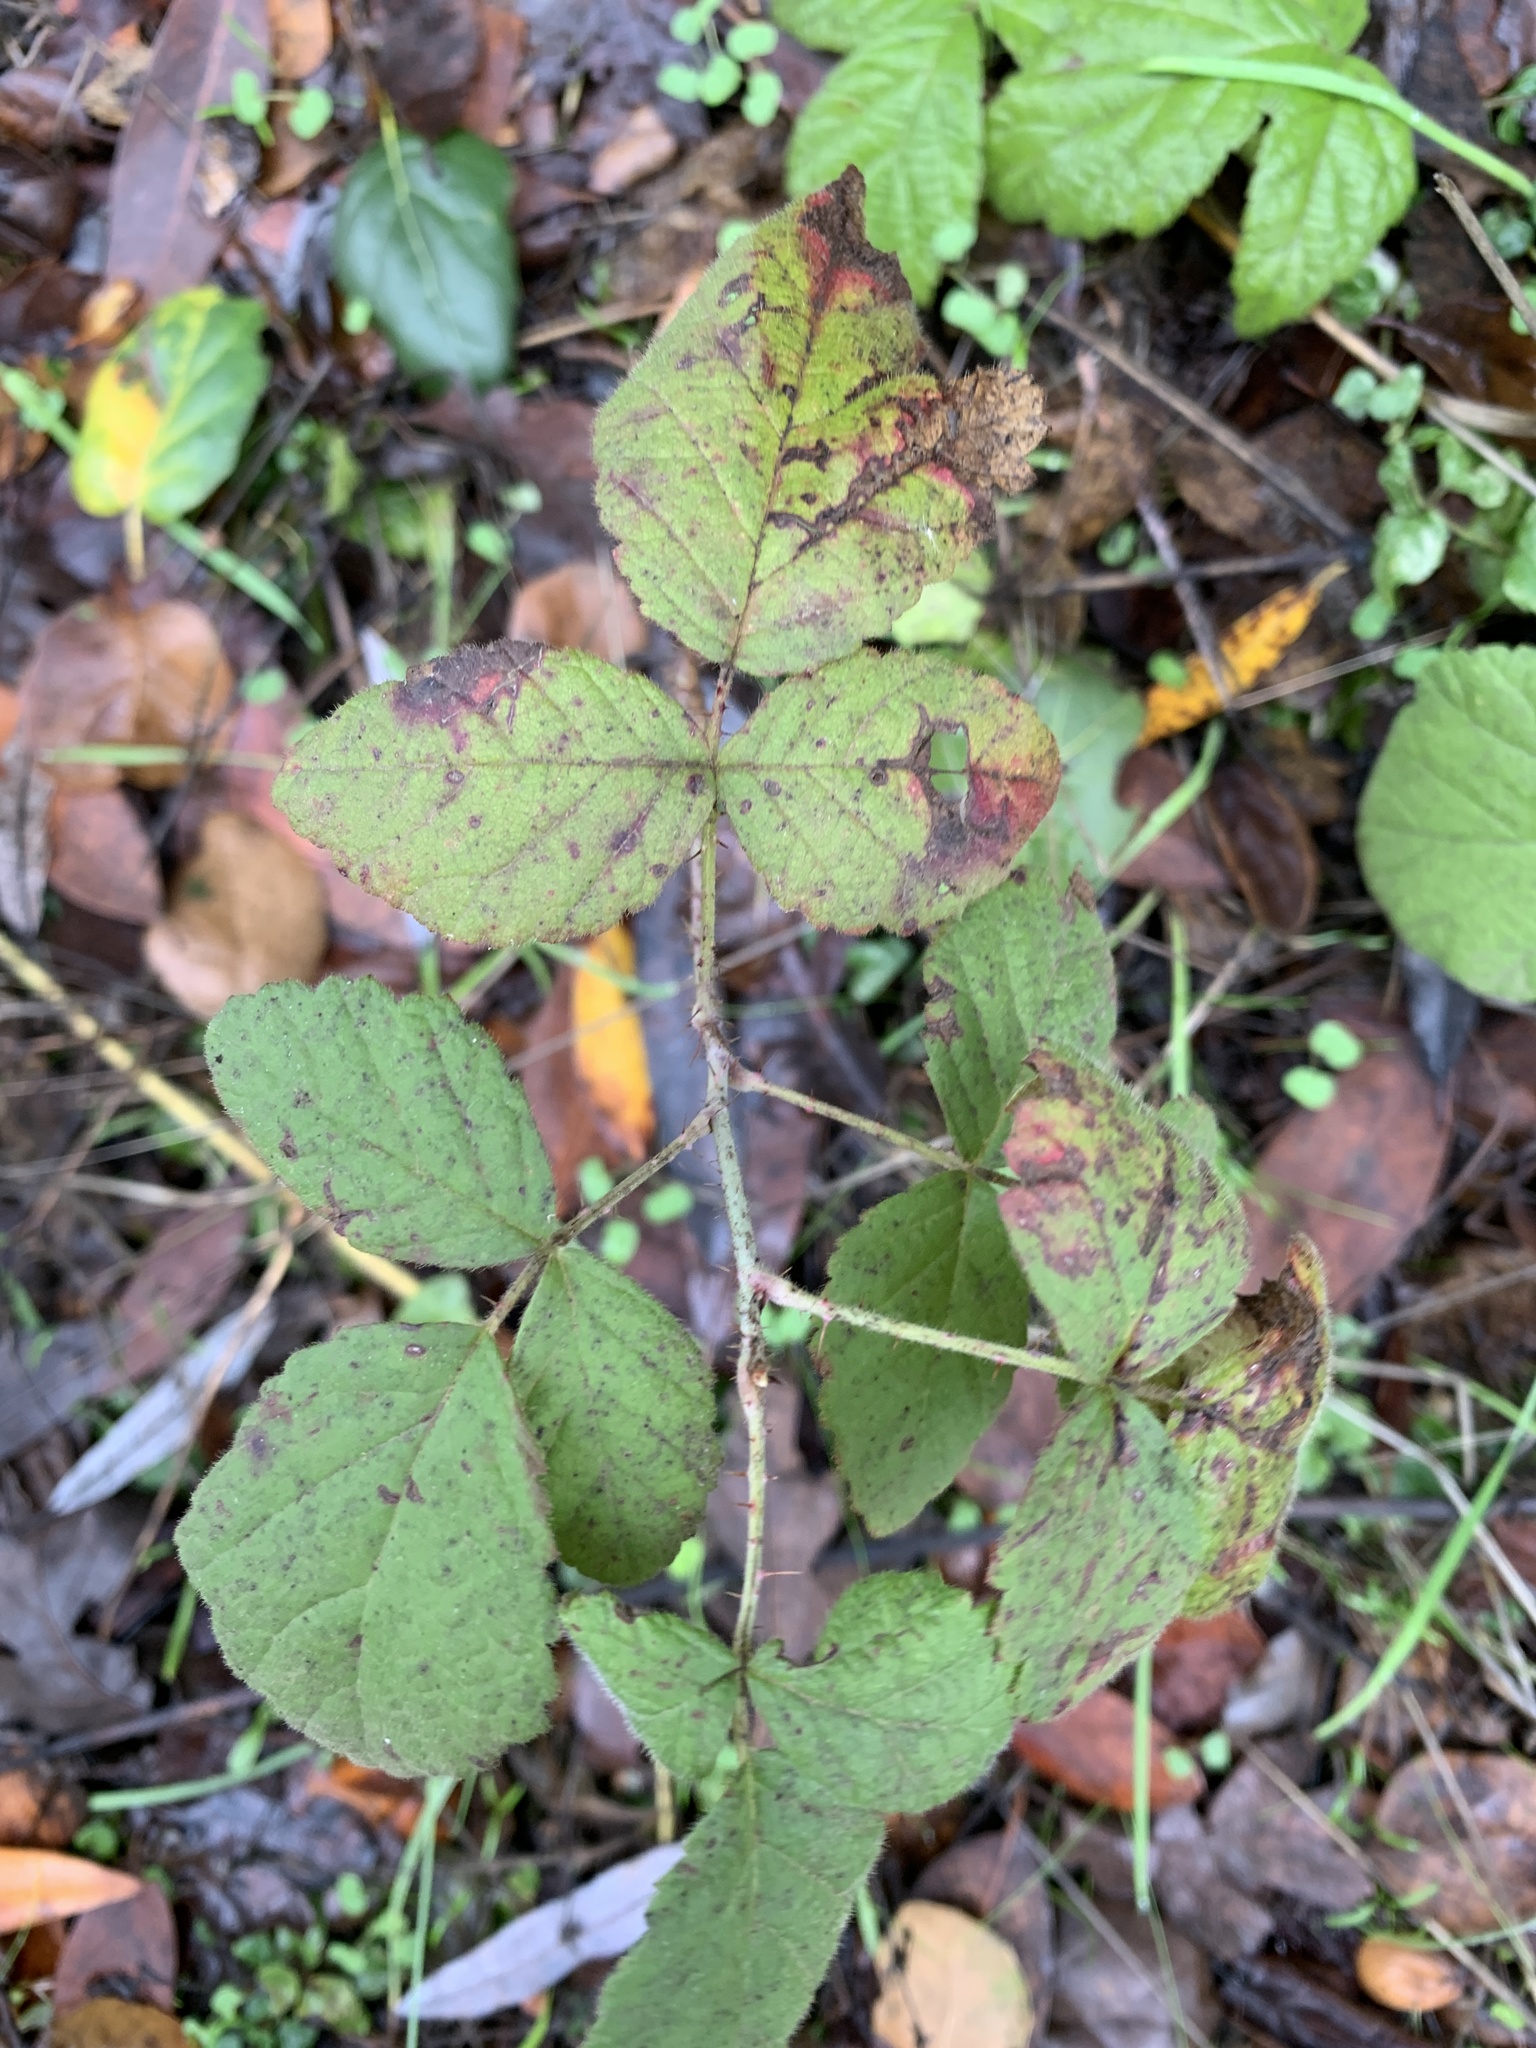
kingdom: Plantae
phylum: Tracheophyta
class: Magnoliopsida
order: Rosales
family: Rosaceae
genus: Rubus
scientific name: Rubus ursinus
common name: Pacific blackberry
